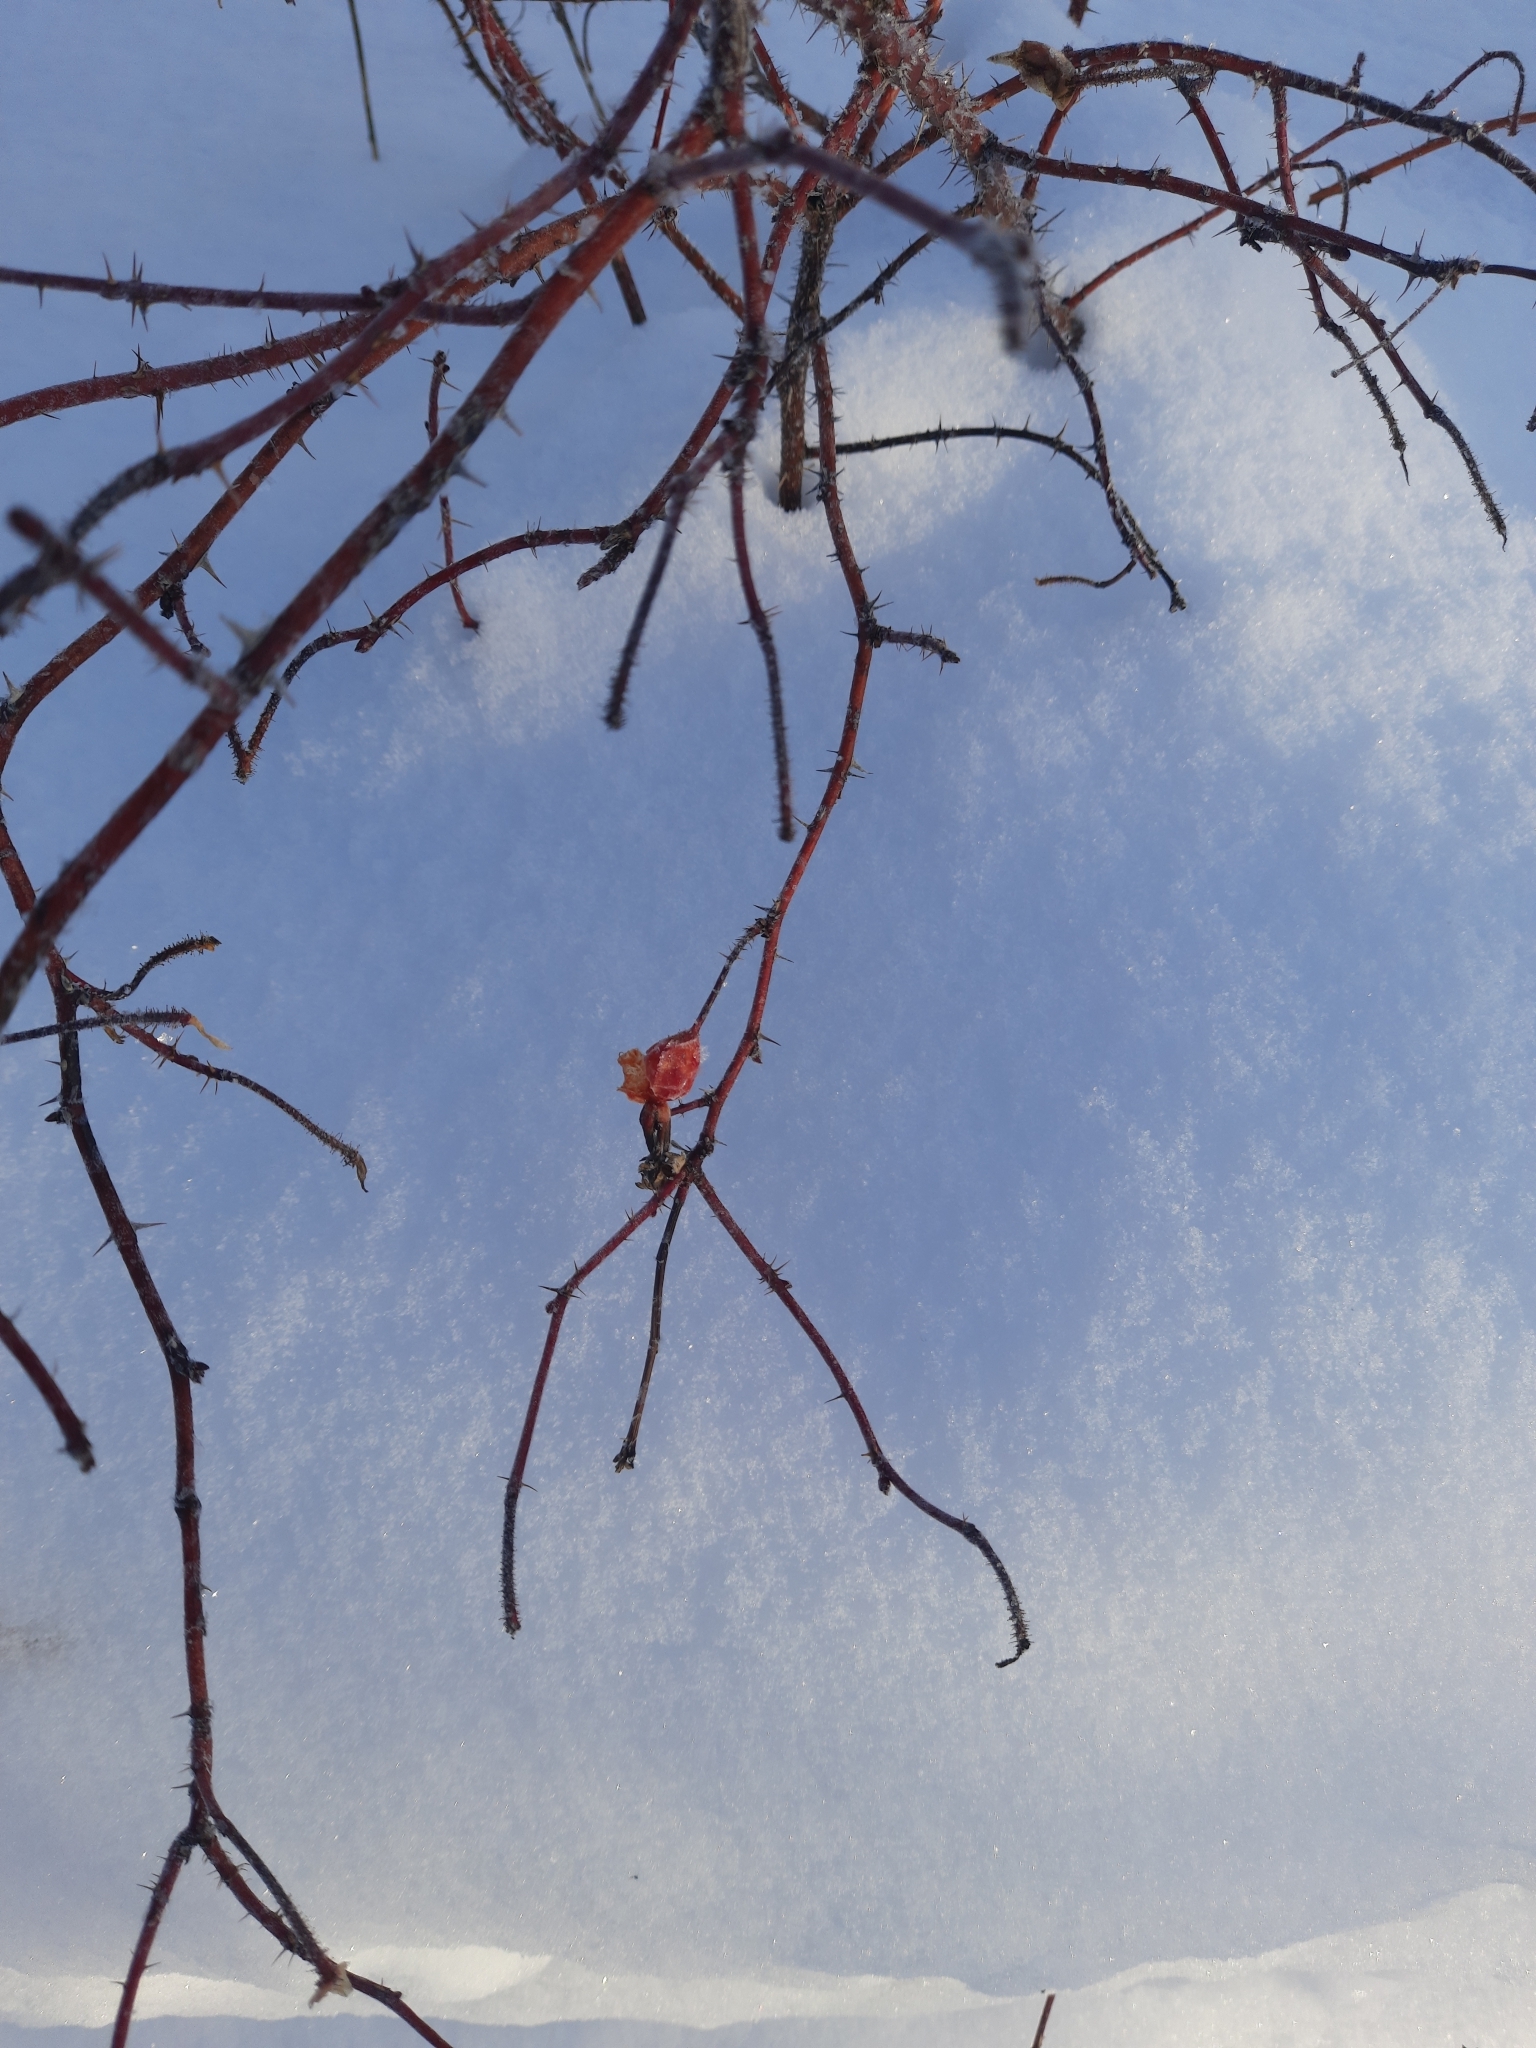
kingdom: Plantae
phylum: Tracheophyta
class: Magnoliopsida
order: Rosales
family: Rosaceae
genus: Rosa
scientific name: Rosa acicularis
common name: Prickly rose
